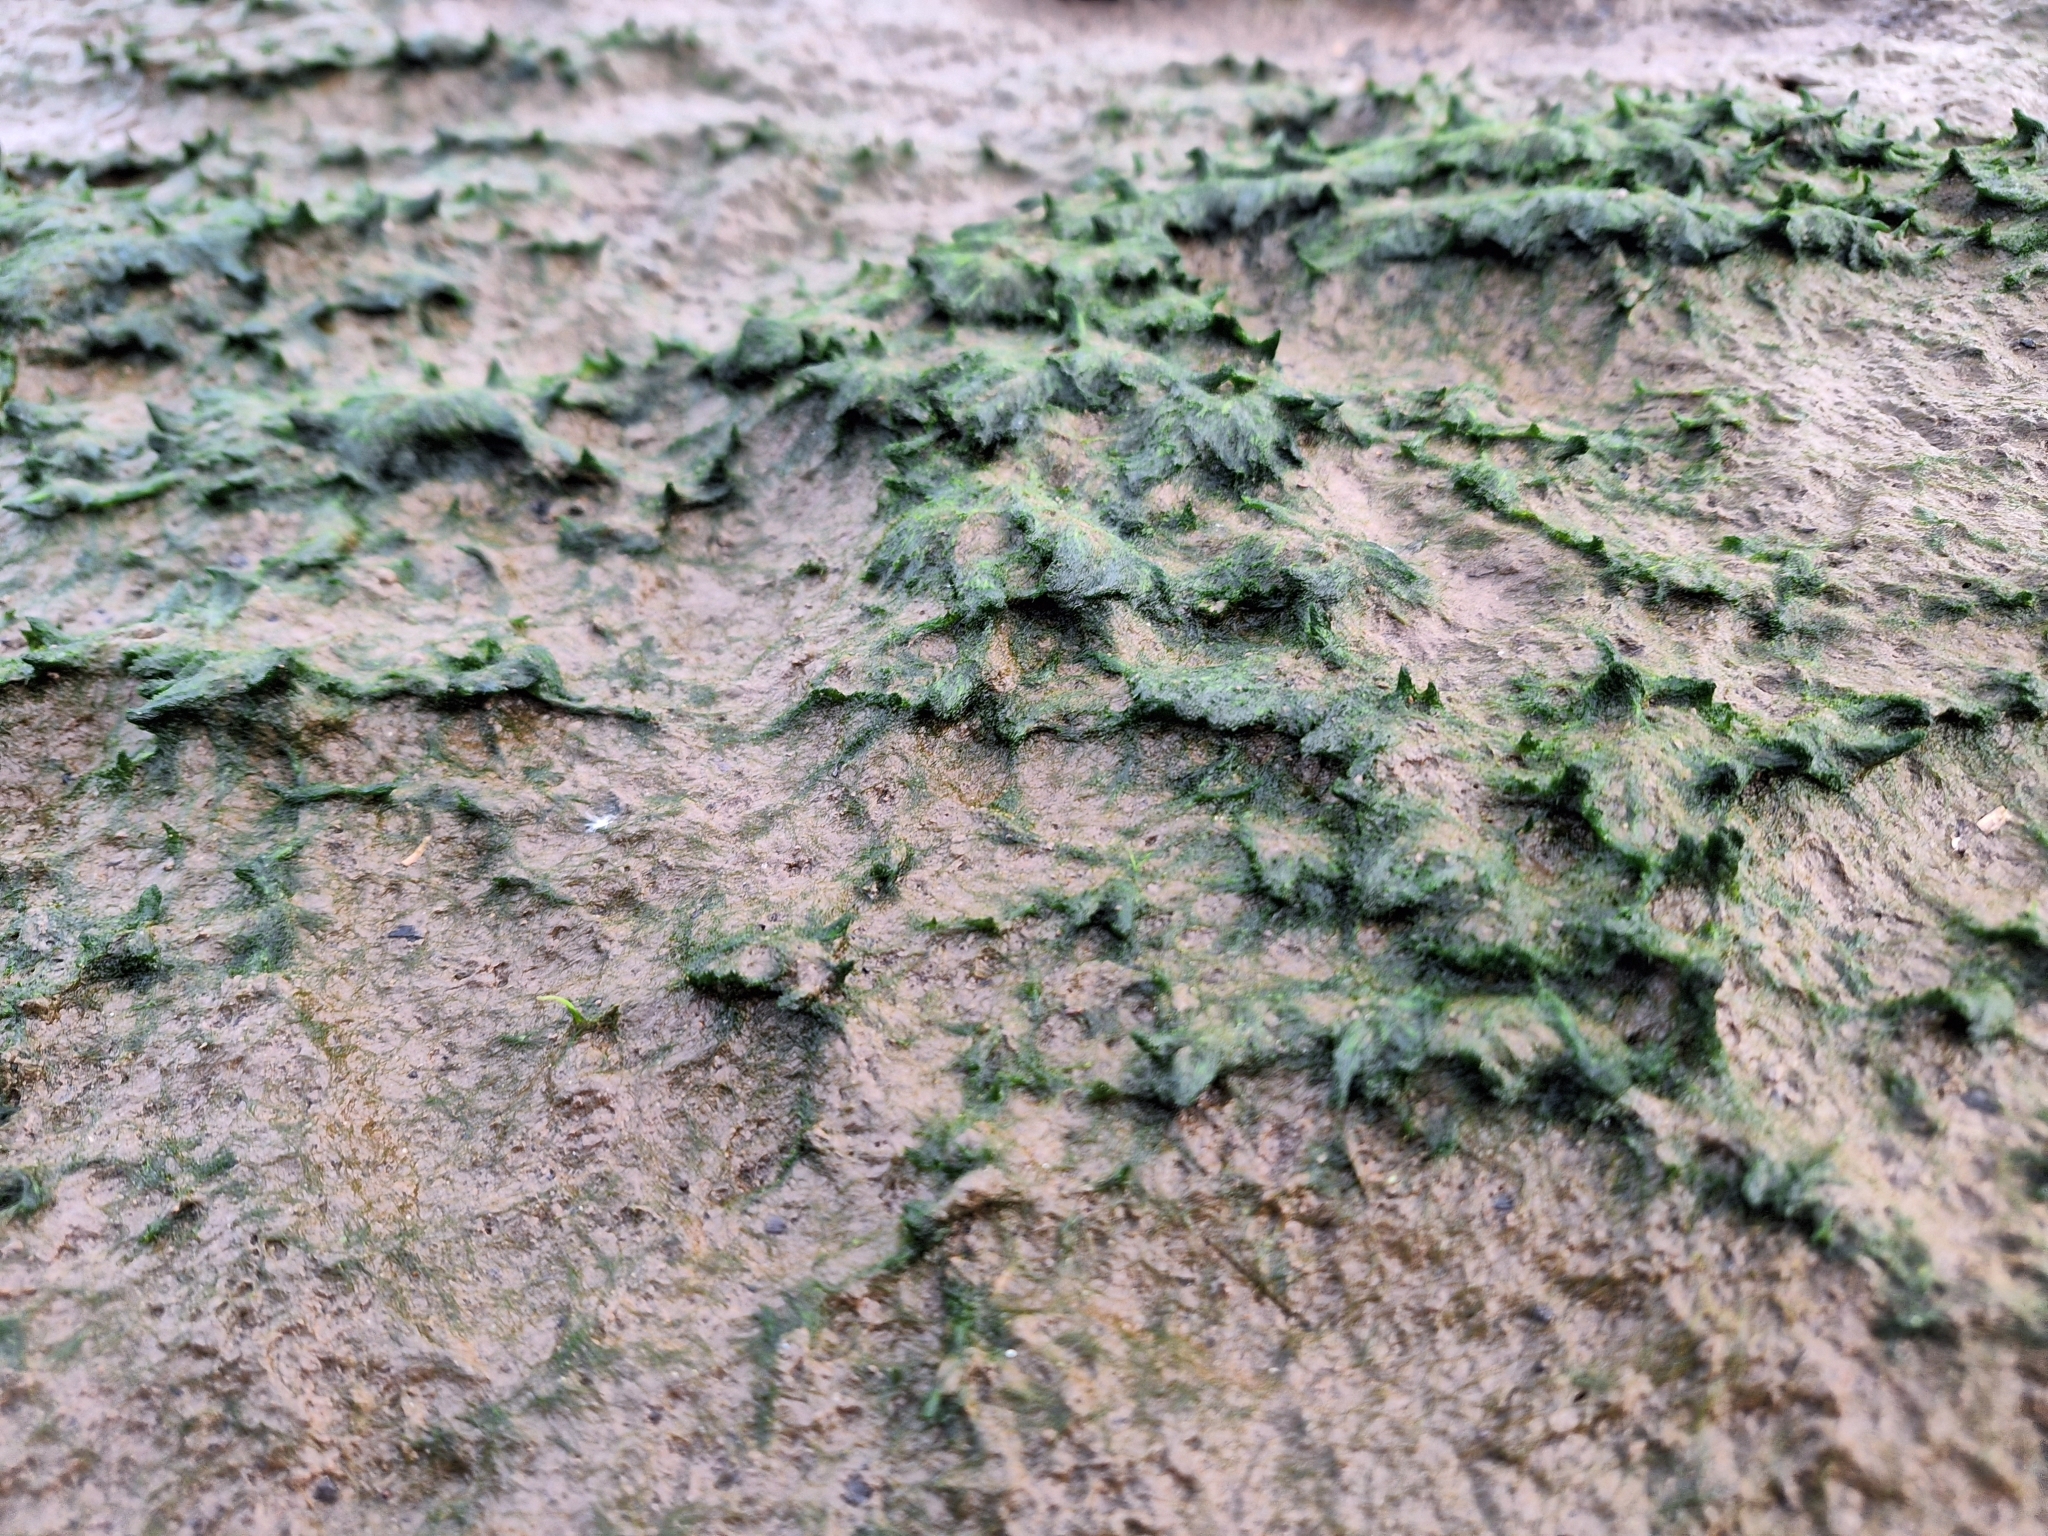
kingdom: Chromista
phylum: Ochrophyta
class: Xanthophyceae
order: Vaucheriales
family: Vaucheriaceae
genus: Vaucheria
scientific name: Vaucheria
